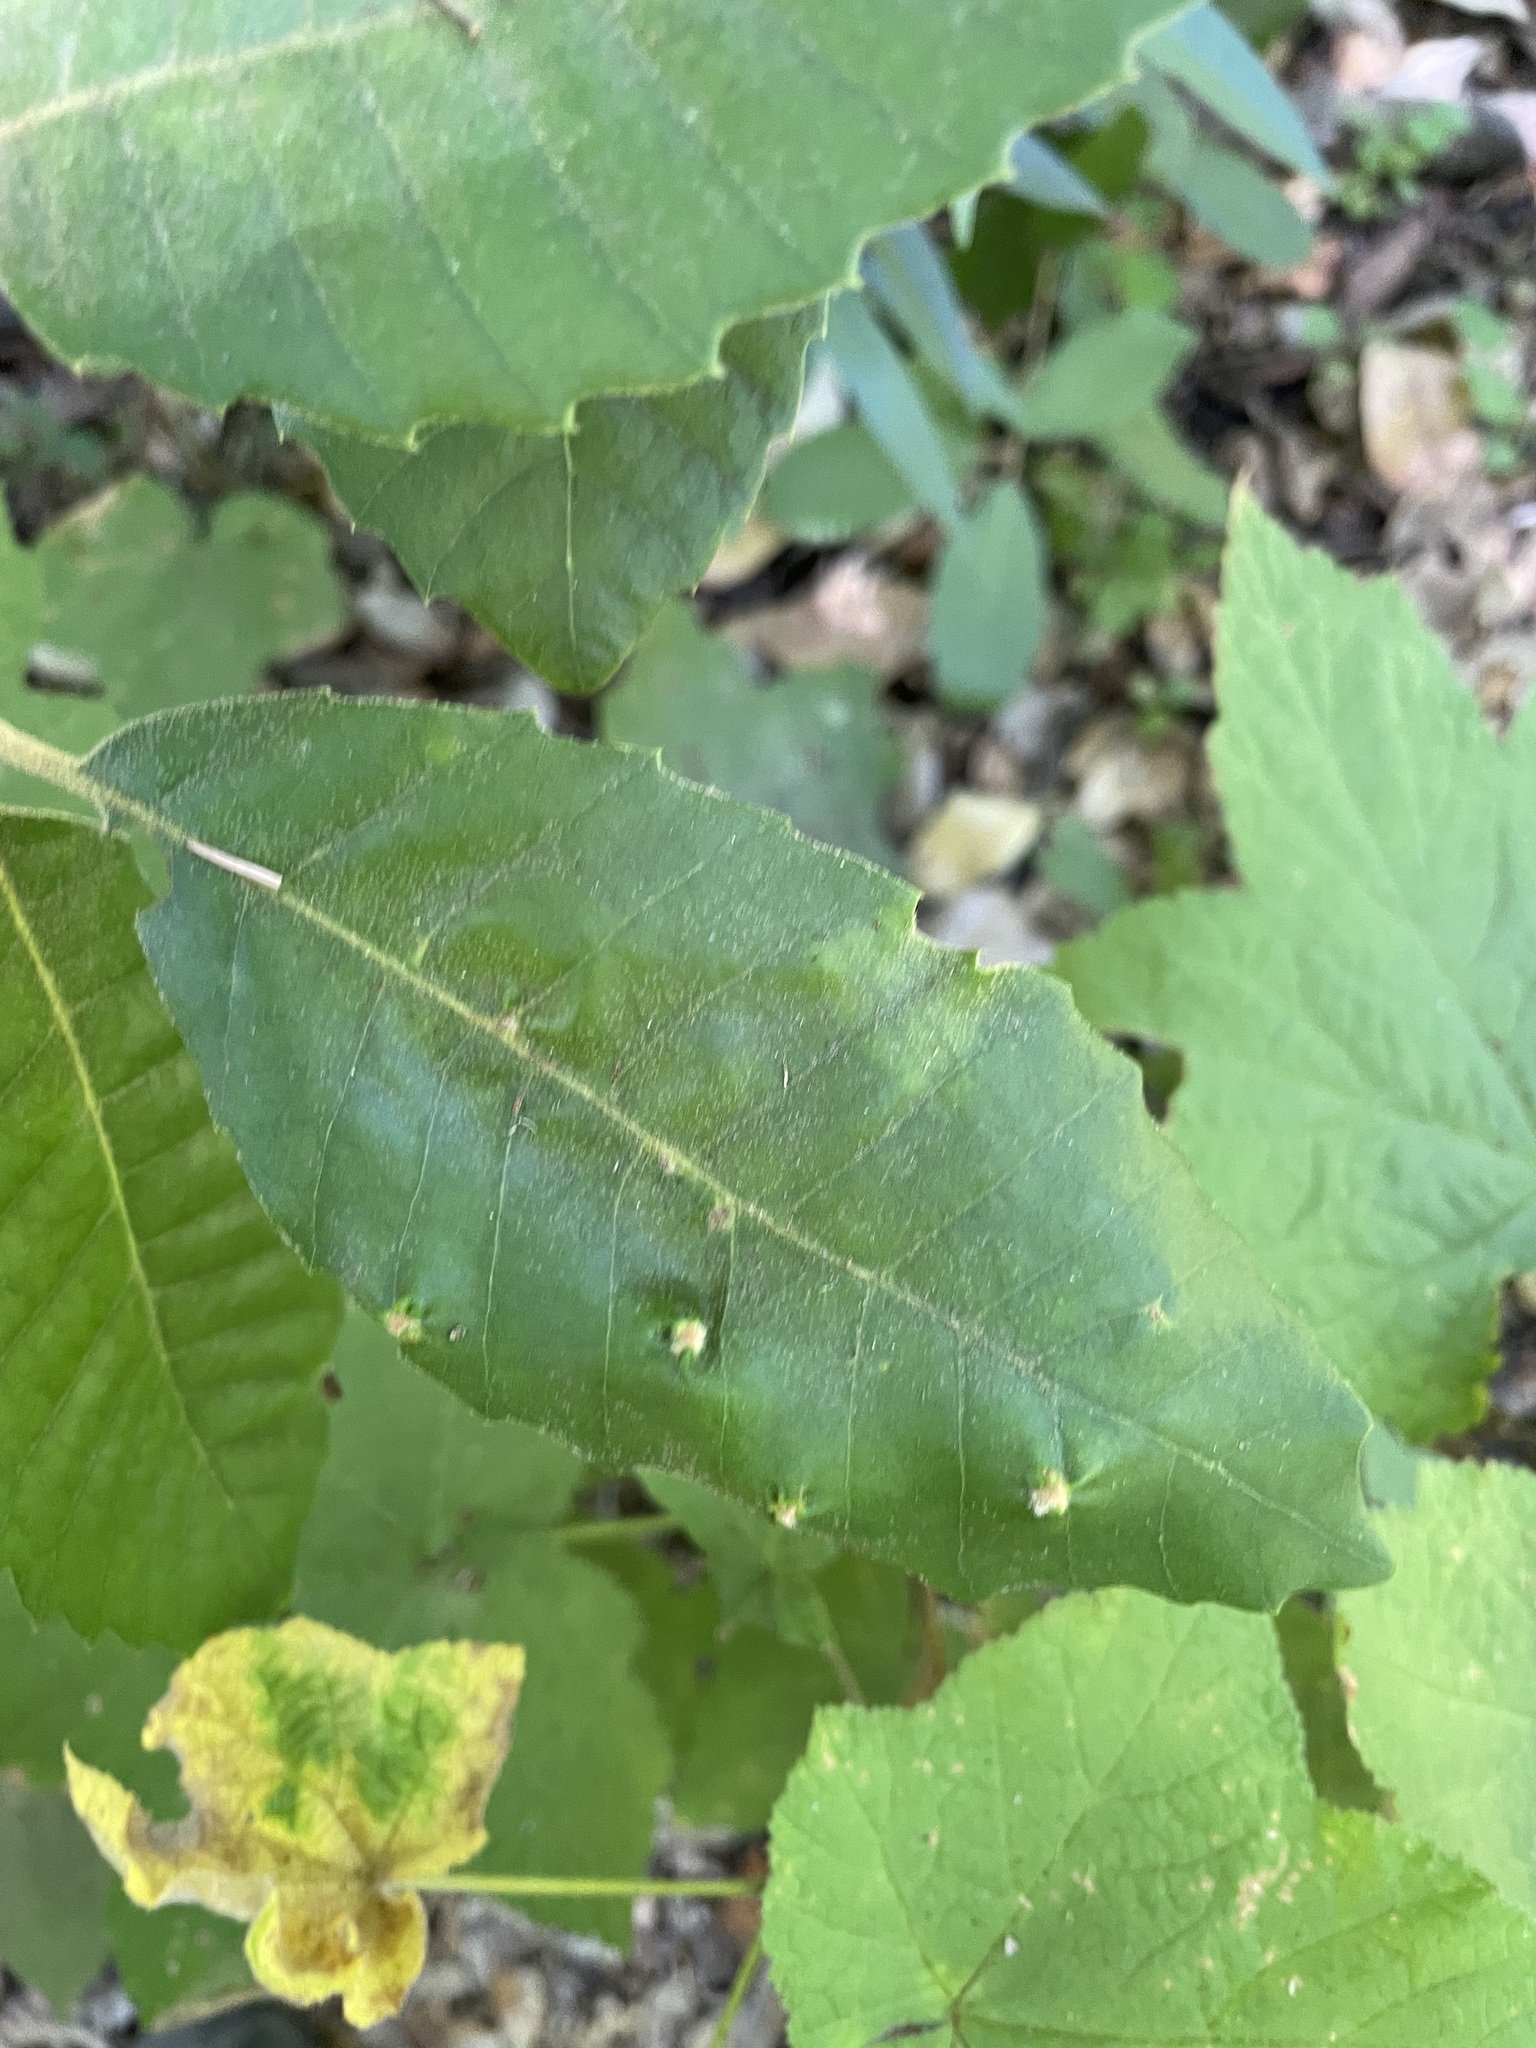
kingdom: Plantae
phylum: Tracheophyta
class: Magnoliopsida
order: Fagales
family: Fagaceae
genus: Notholithocarpus
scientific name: Notholithocarpus densiflorus
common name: Tan bark oak
